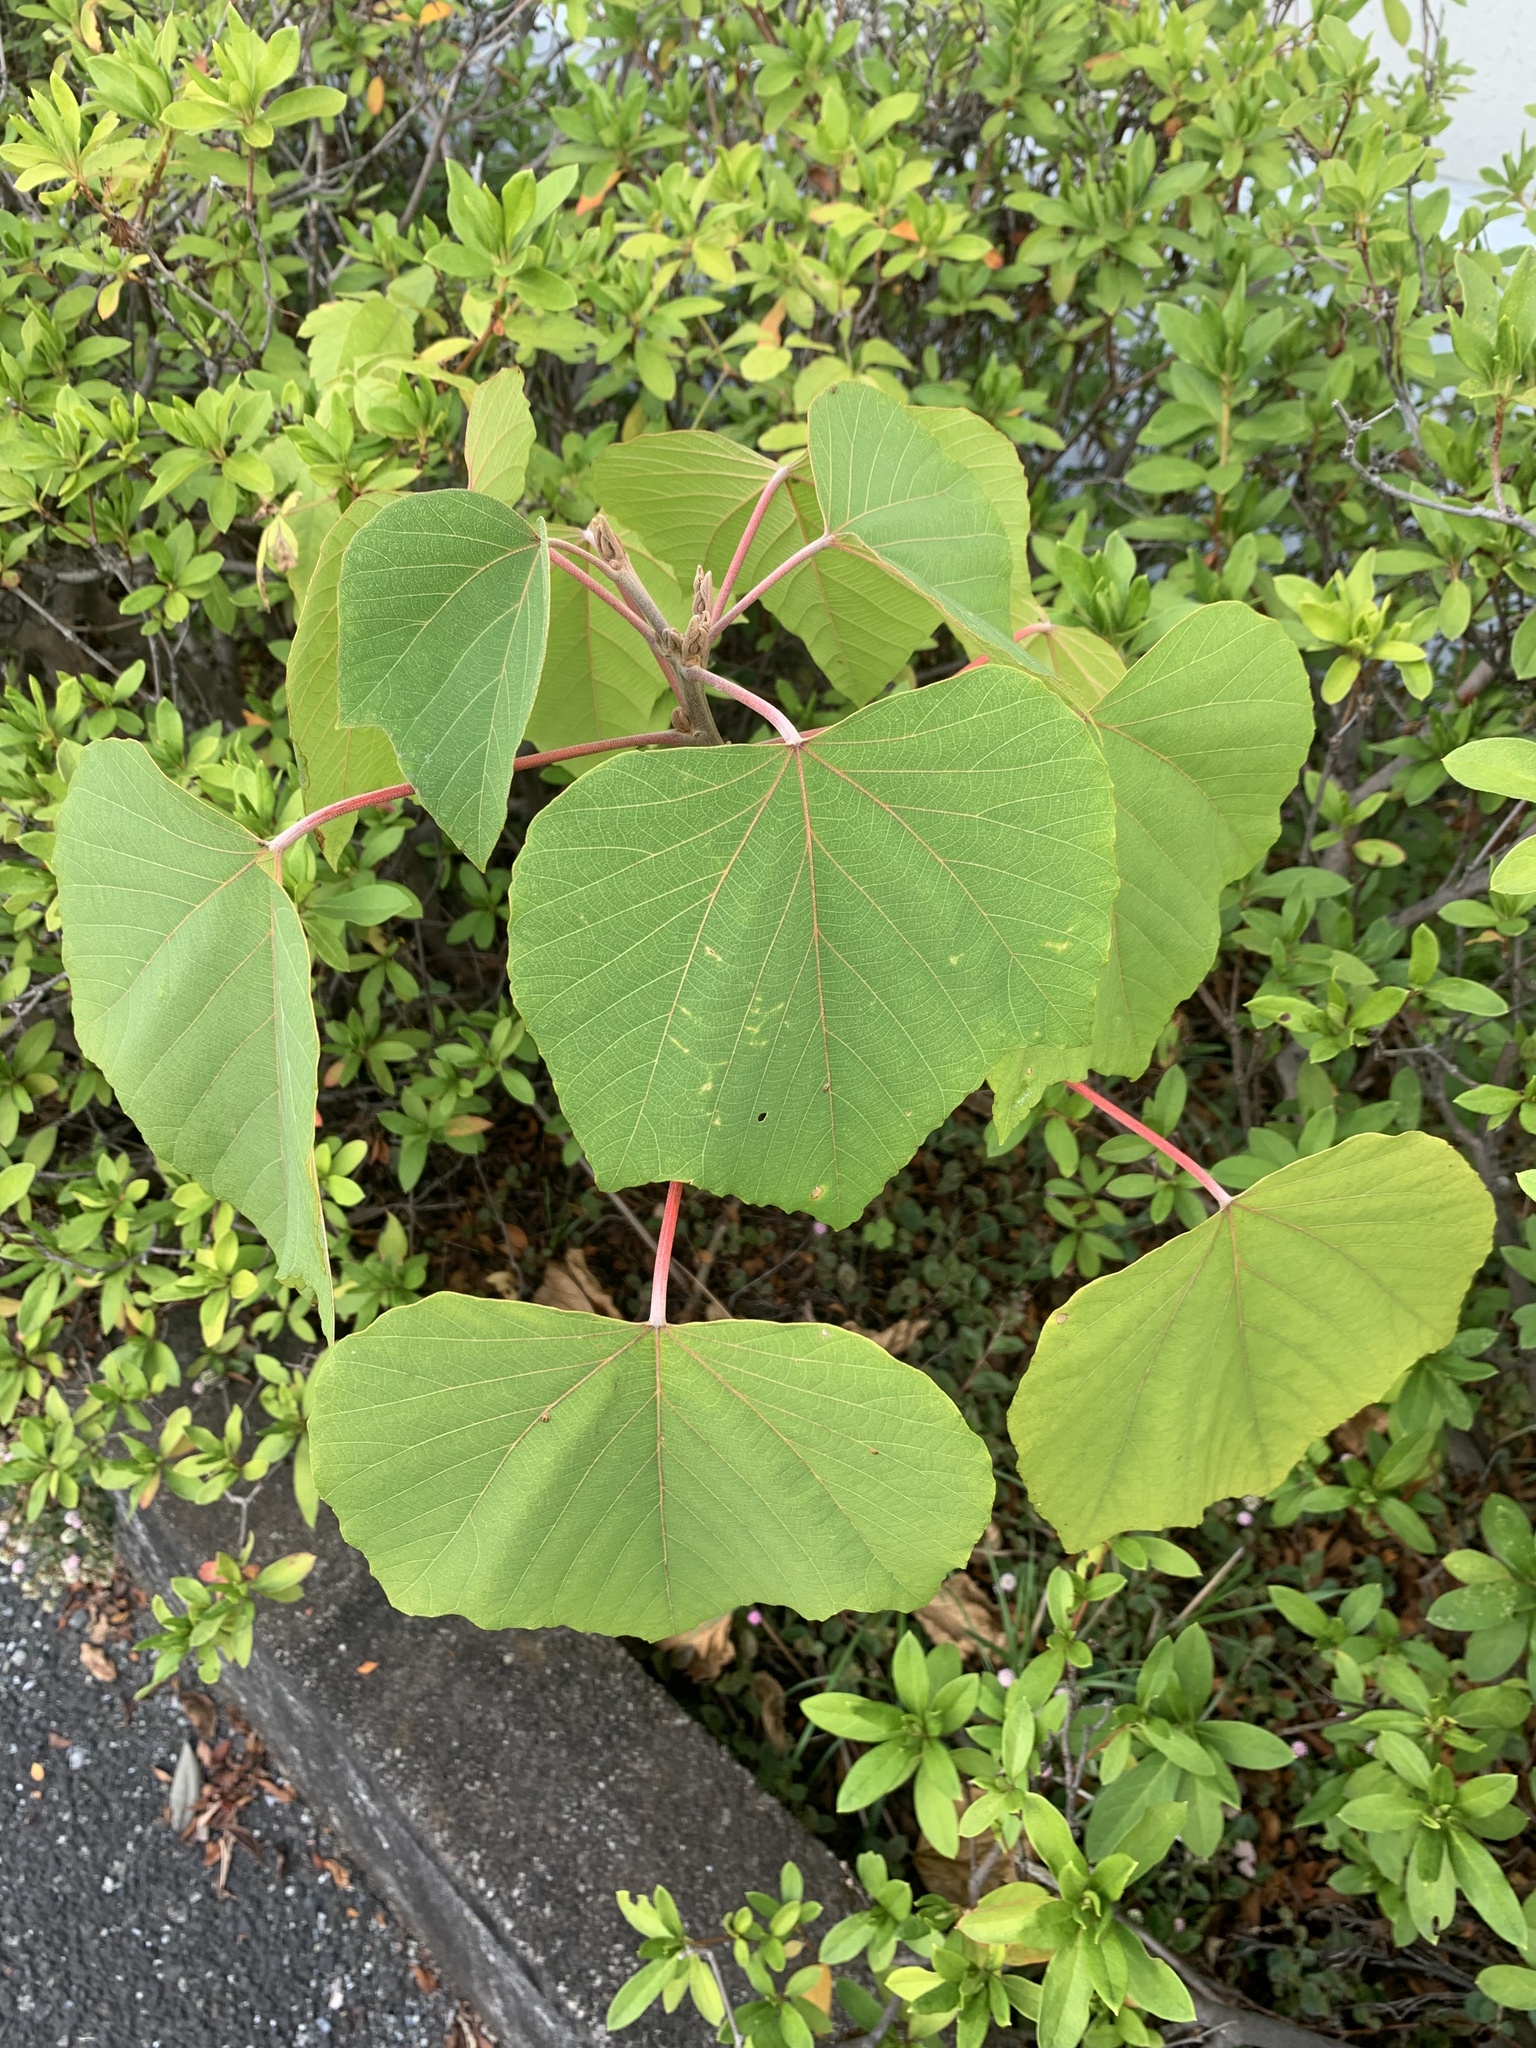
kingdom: Plantae
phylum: Tracheophyta
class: Magnoliopsida
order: Malpighiales
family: Euphorbiaceae
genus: Mallotus
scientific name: Mallotus japonicus
